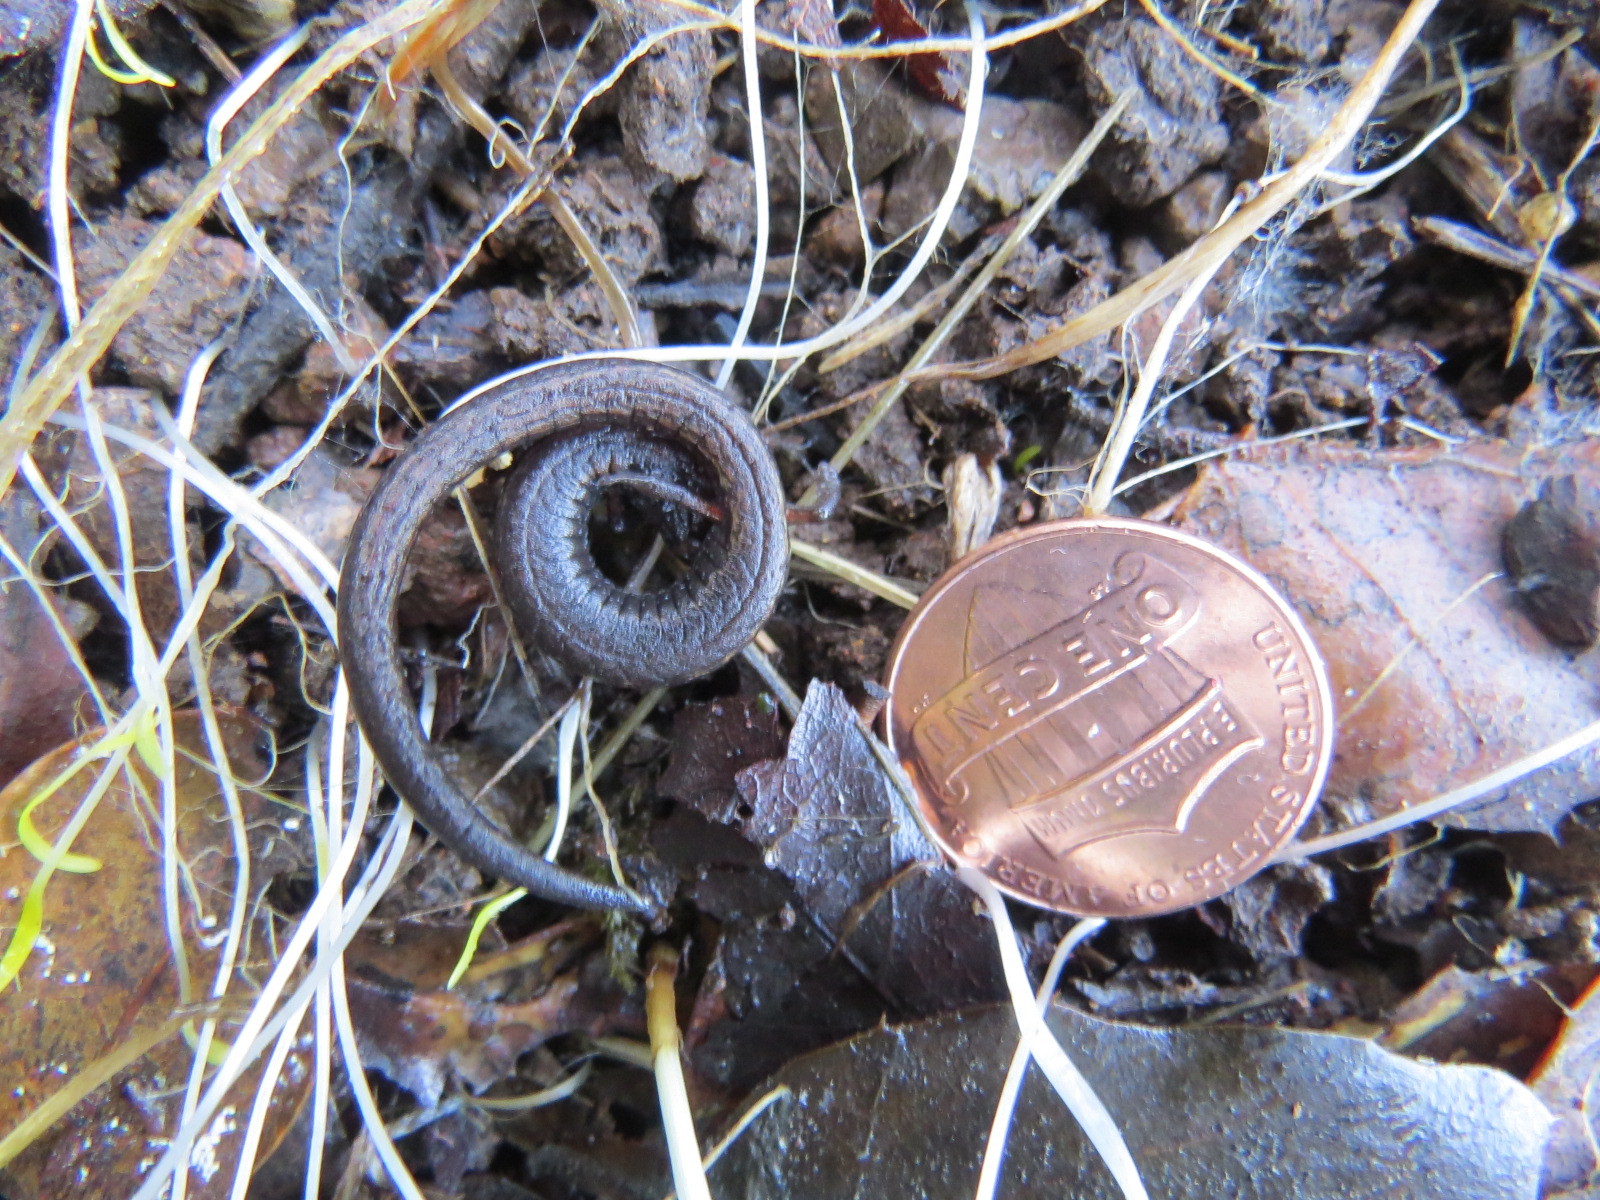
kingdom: Animalia
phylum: Chordata
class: Amphibia
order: Caudata
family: Plethodontidae
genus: Batrachoseps
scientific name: Batrachoseps attenuatus
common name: California slender salamander
